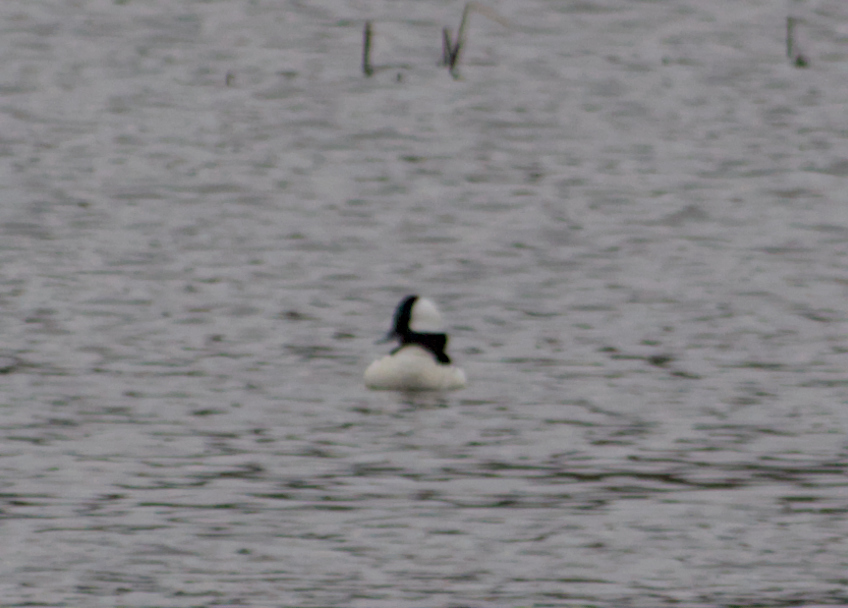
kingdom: Animalia
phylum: Chordata
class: Aves
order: Anseriformes
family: Anatidae
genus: Bucephala
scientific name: Bucephala albeola
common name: Bufflehead
